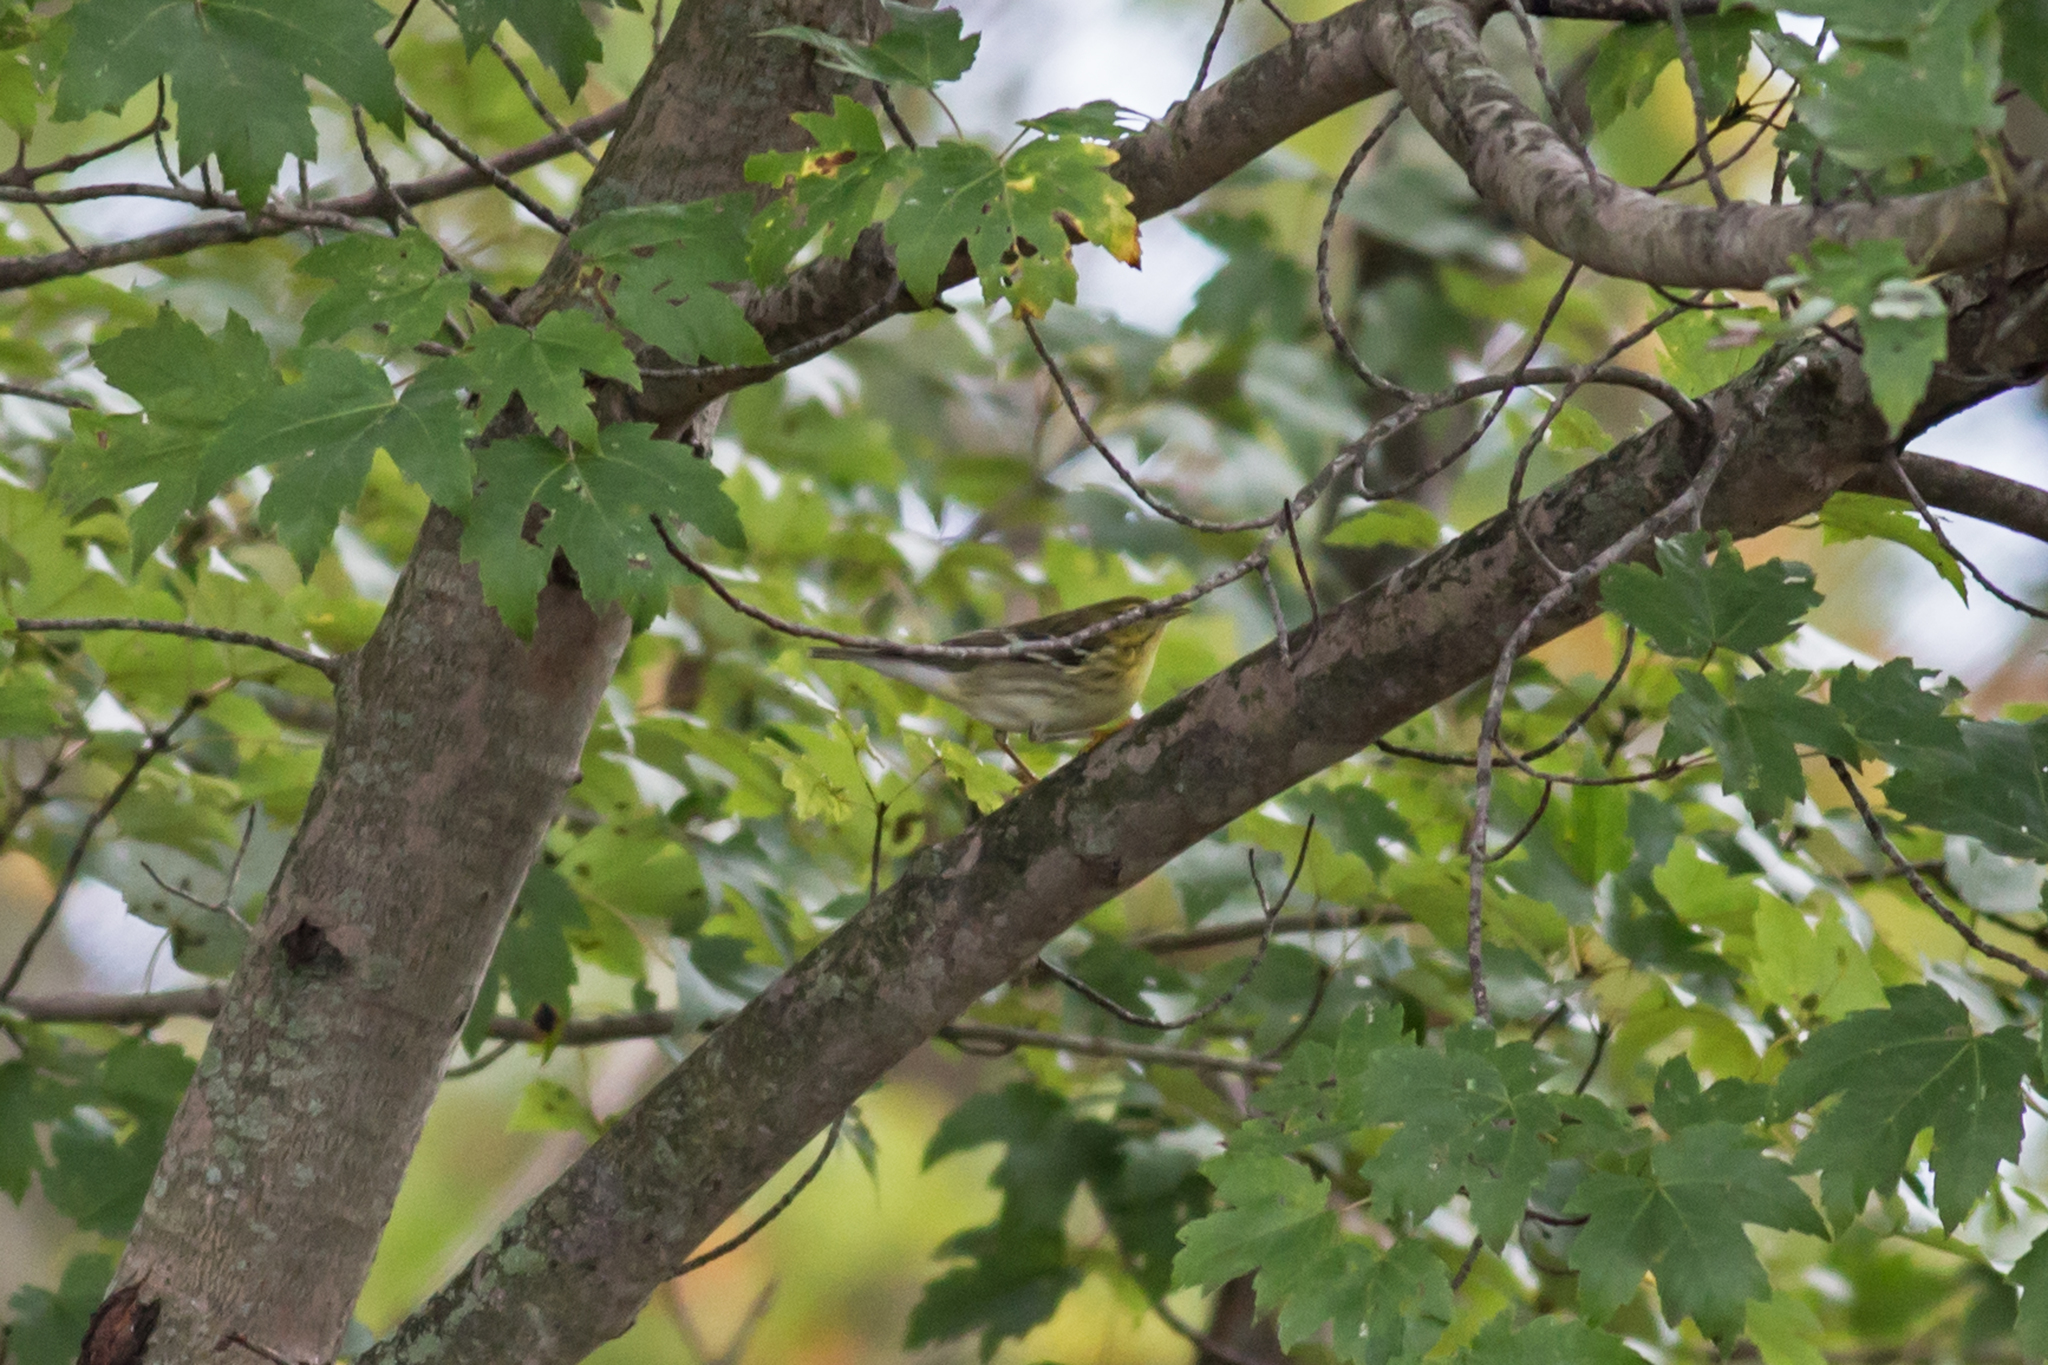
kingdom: Animalia
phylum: Chordata
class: Aves
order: Passeriformes
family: Parulidae
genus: Setophaga
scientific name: Setophaga striata
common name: Blackpoll warbler
